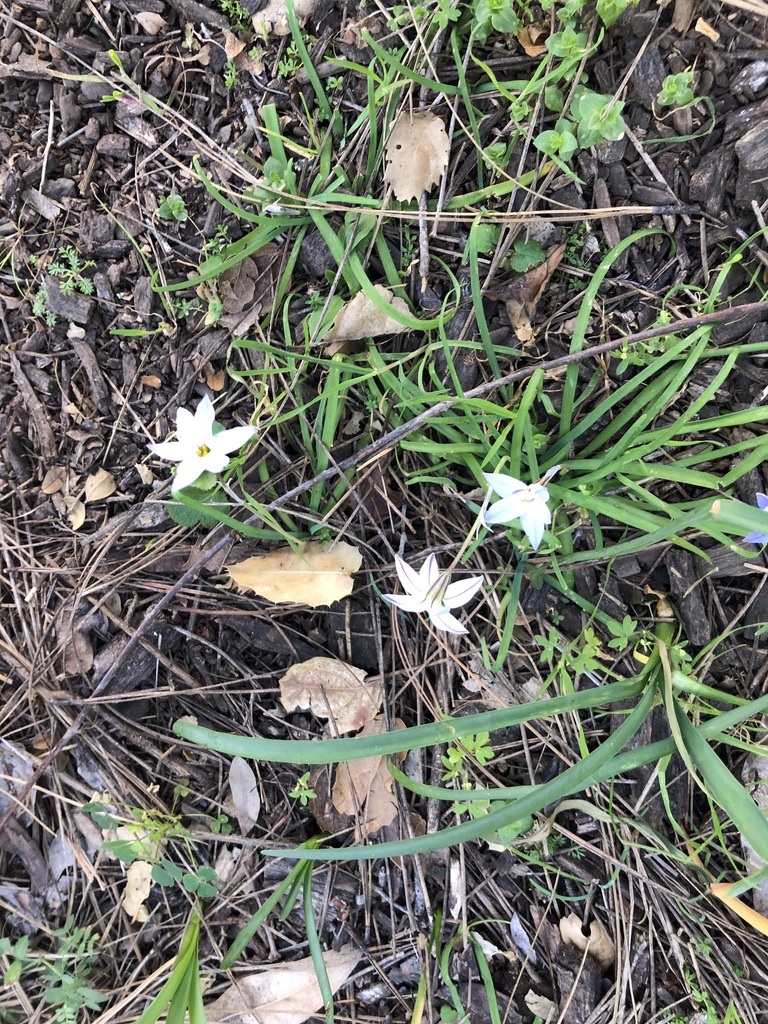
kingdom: Plantae
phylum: Tracheophyta
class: Liliopsida
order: Asparagales
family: Amaryllidaceae
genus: Ipheion
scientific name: Ipheion uniflorum
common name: Spring starflower
